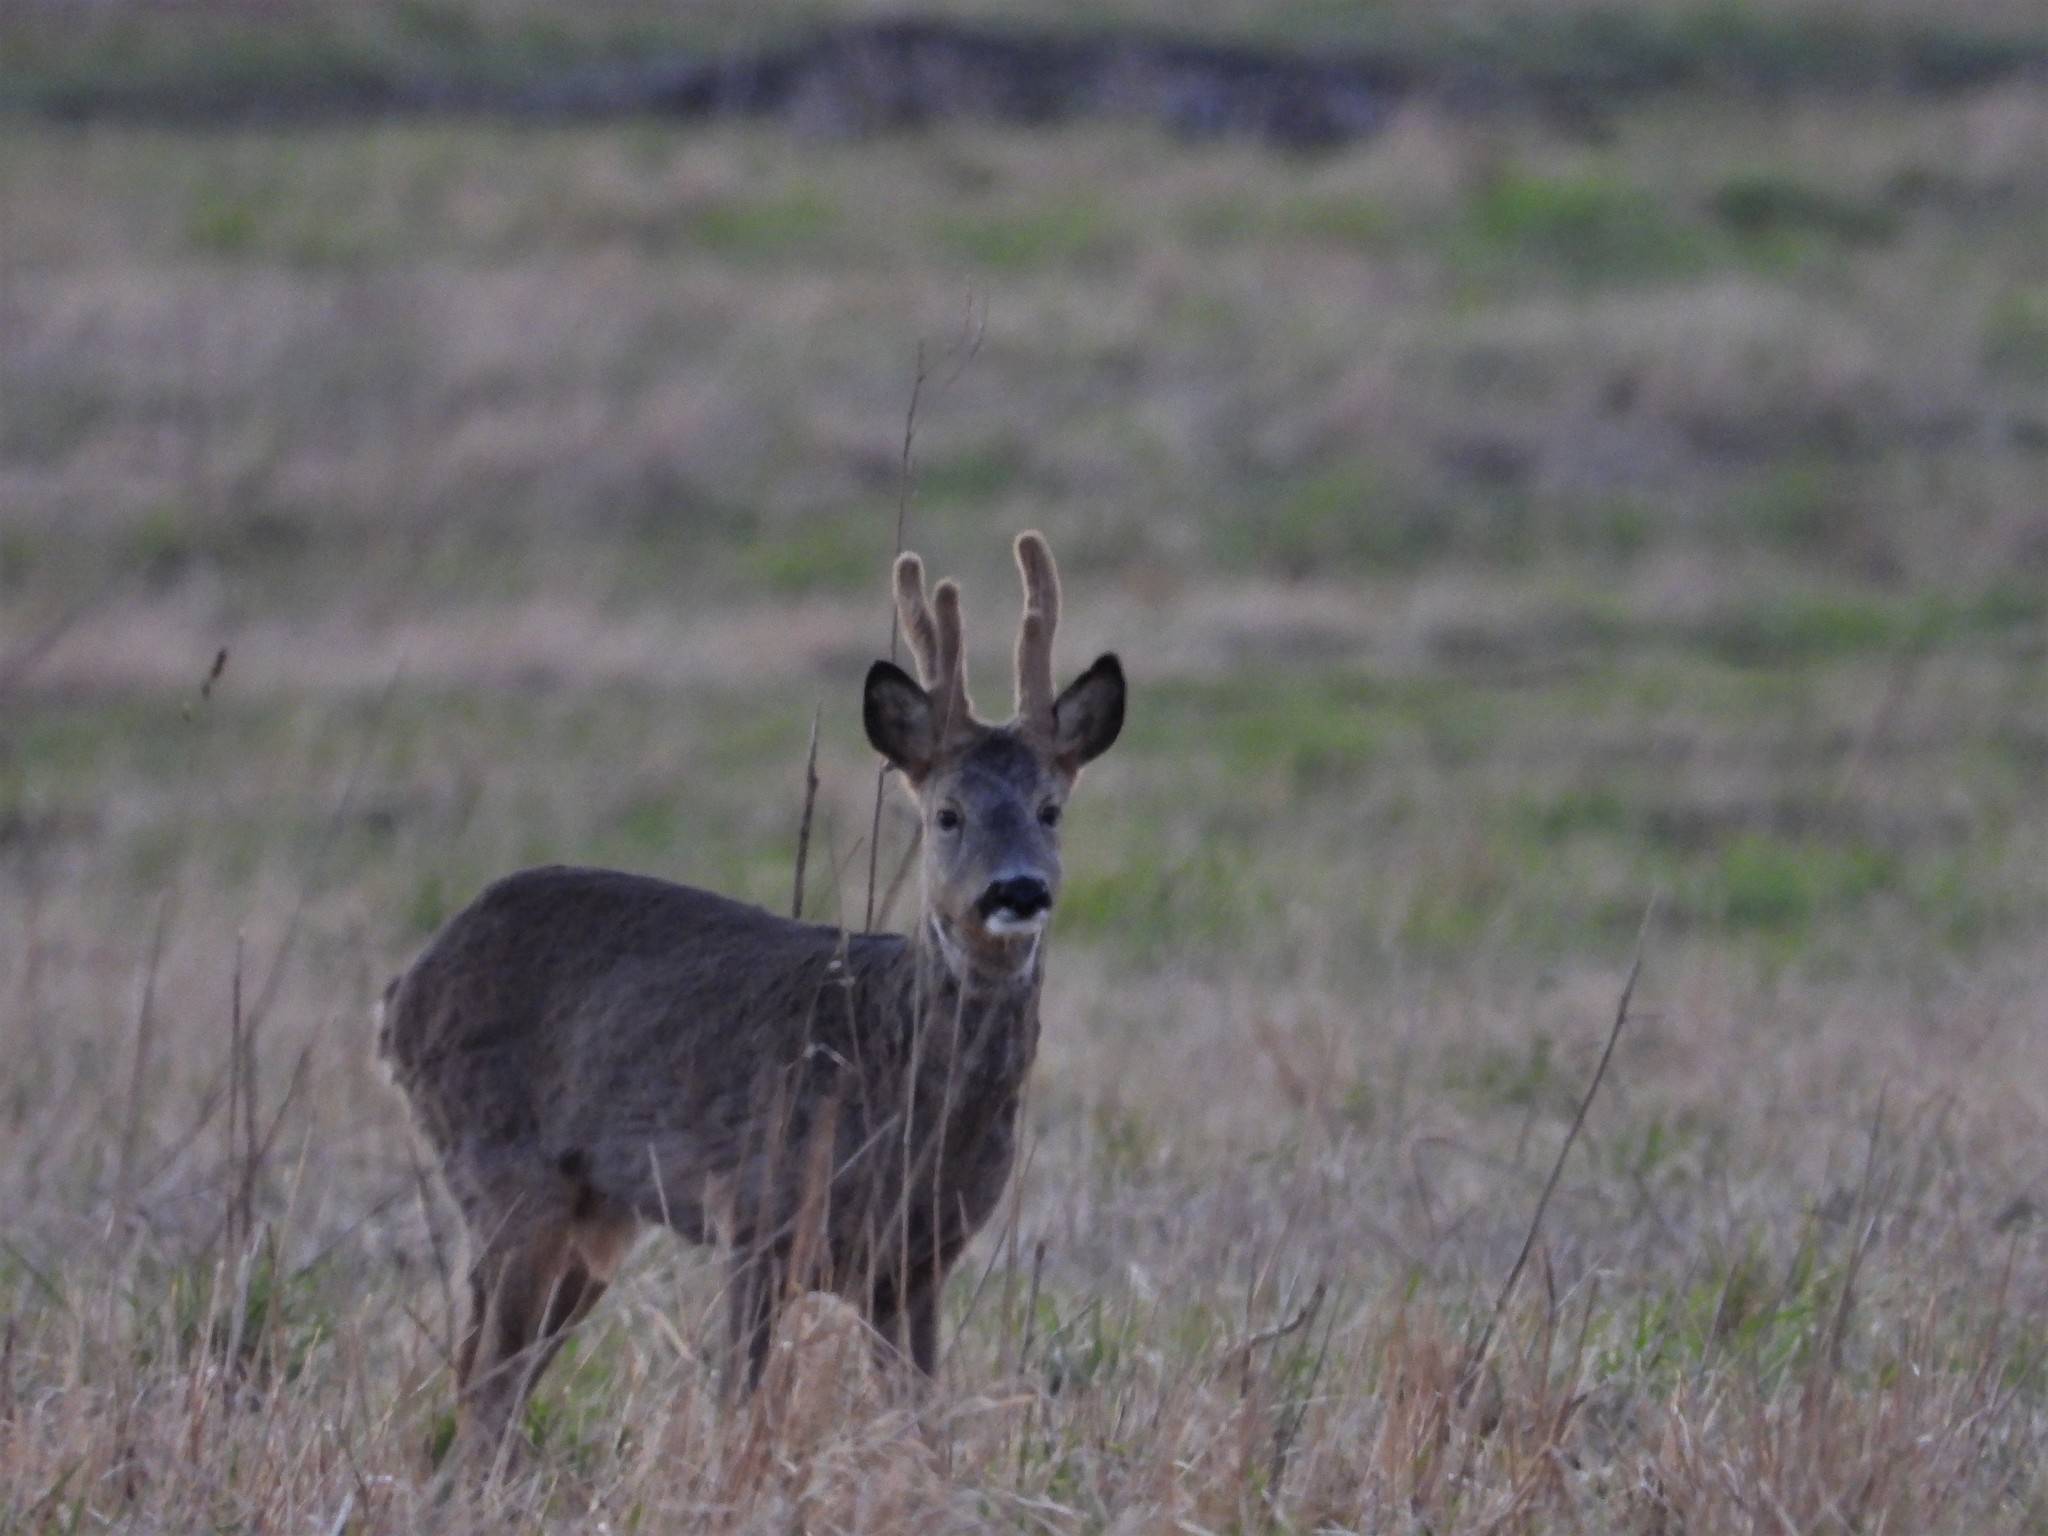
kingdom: Animalia
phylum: Chordata
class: Mammalia
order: Artiodactyla
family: Cervidae
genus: Capreolus
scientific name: Capreolus capreolus
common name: Western roe deer
